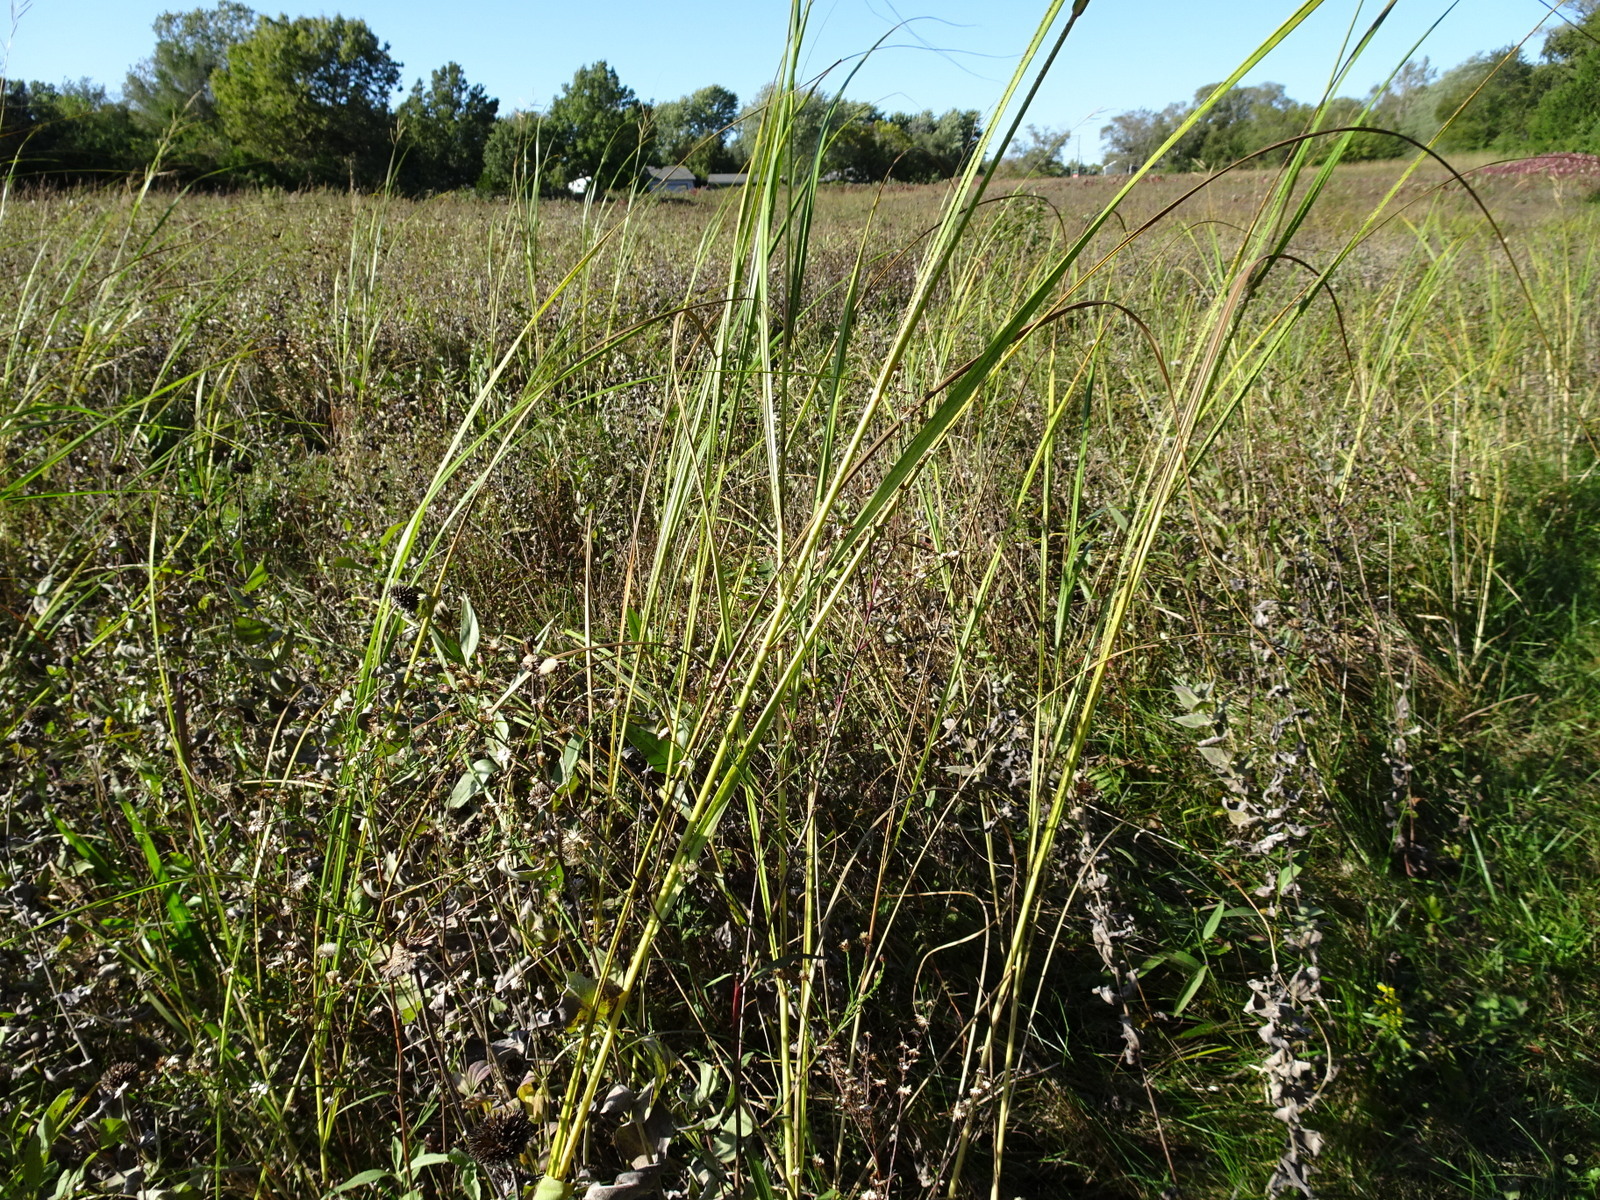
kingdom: Plantae
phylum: Tracheophyta
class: Liliopsida
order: Poales
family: Poaceae
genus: Sporobolus
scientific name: Sporobolus michauxianus
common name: Freshwater cordgrass
